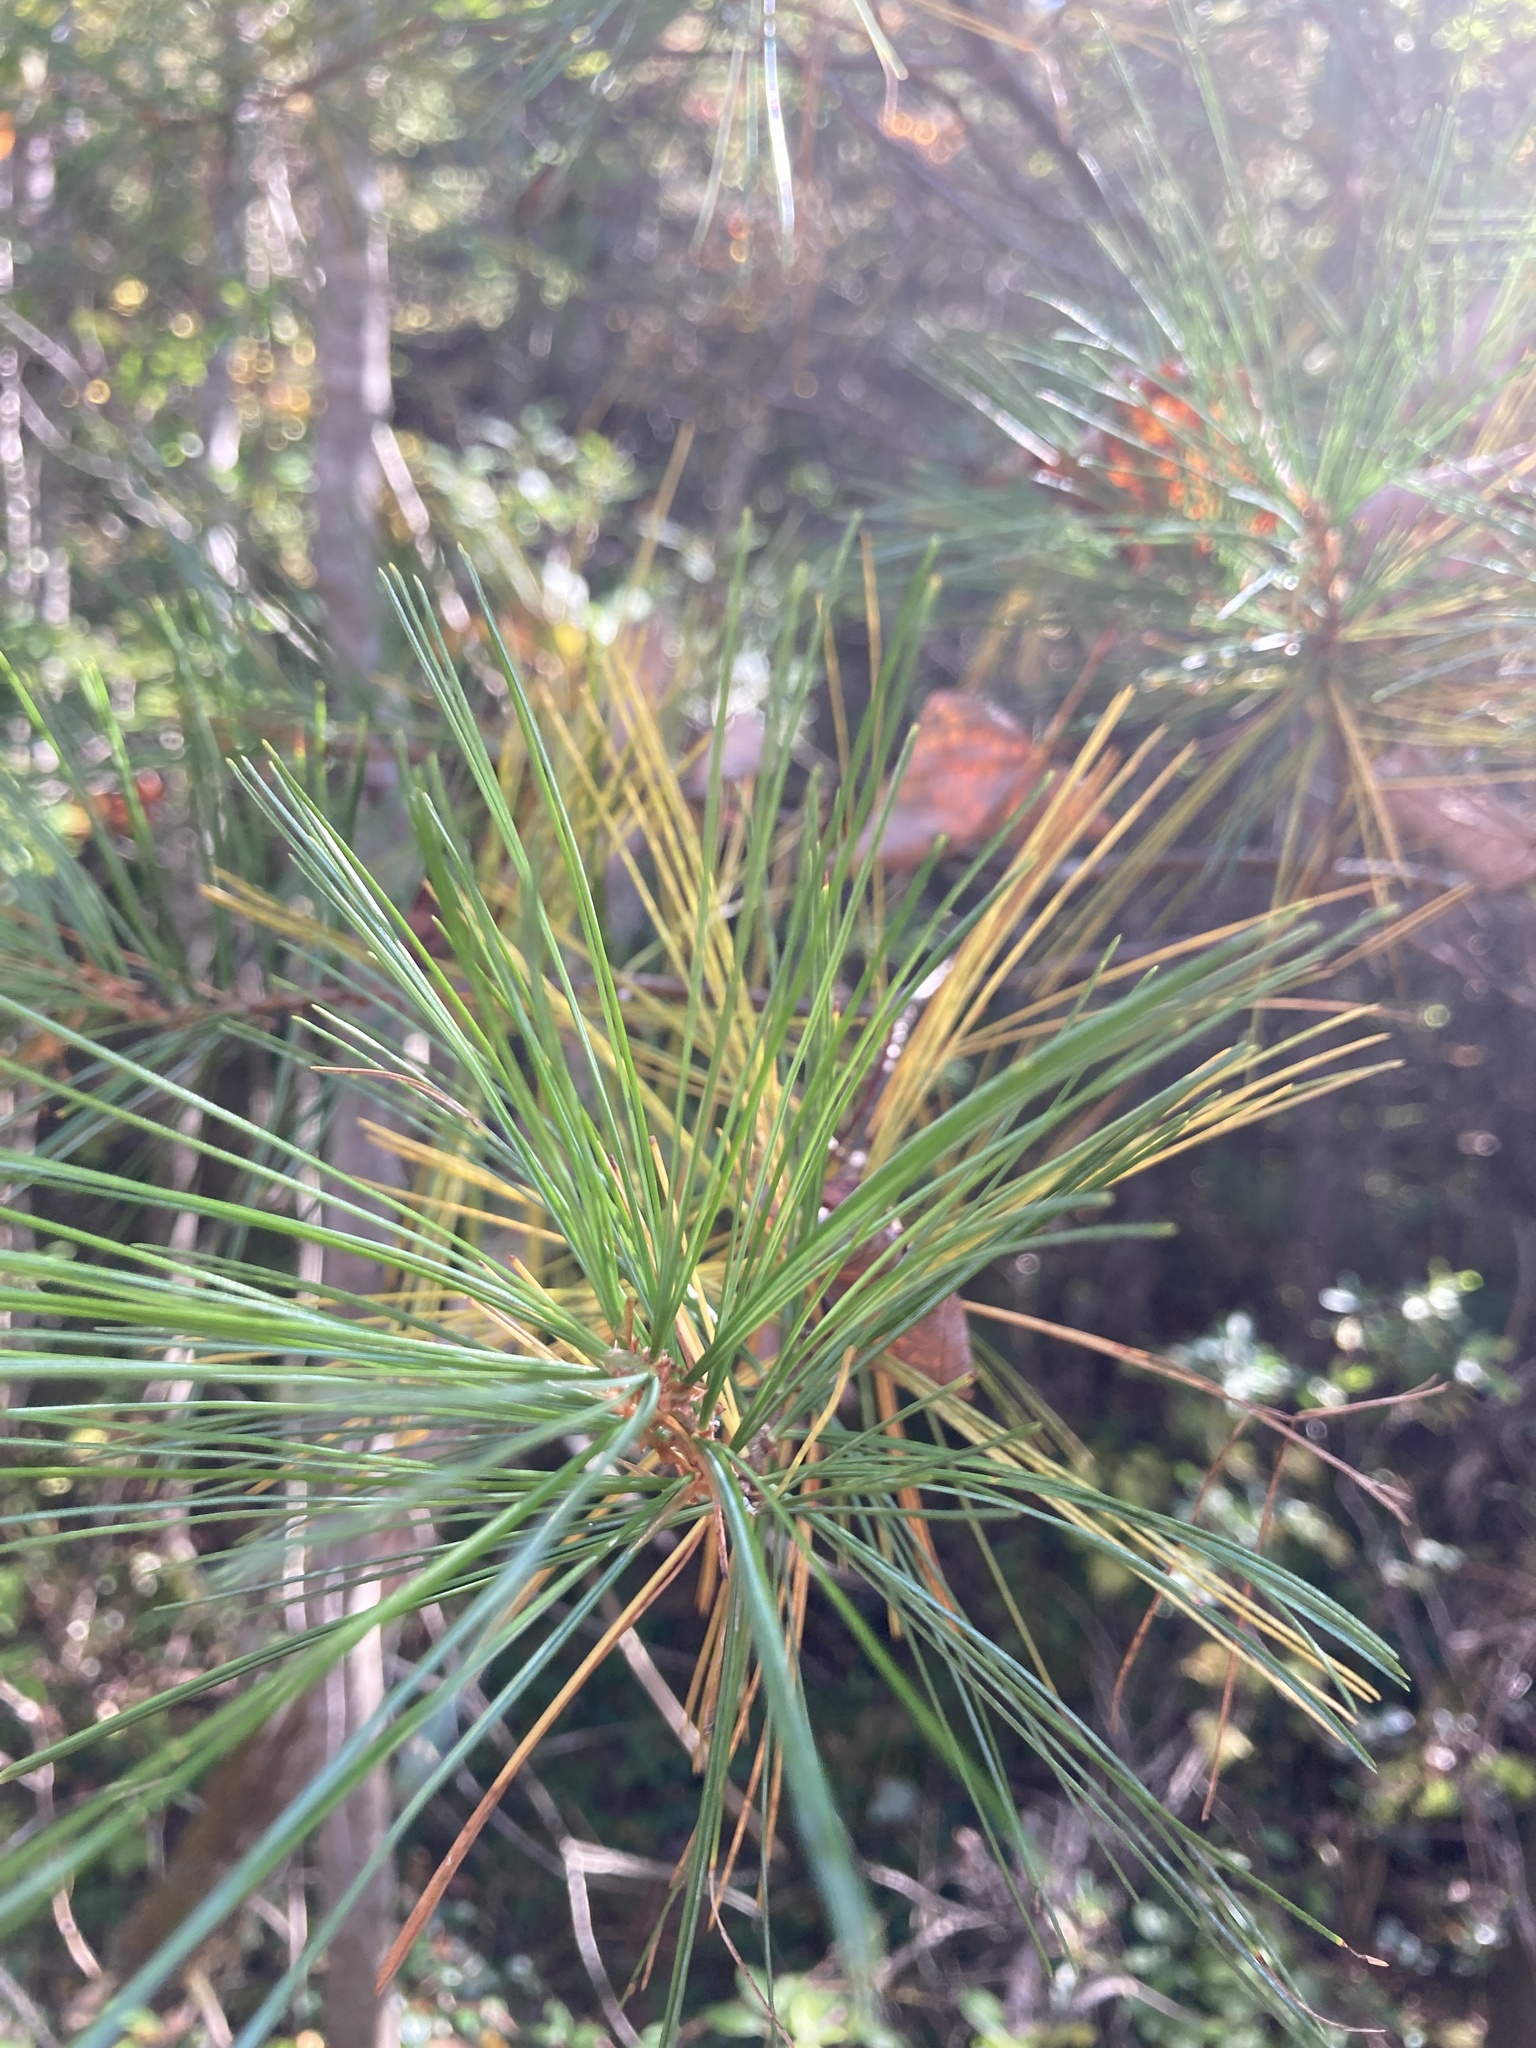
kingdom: Plantae
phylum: Tracheophyta
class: Pinopsida
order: Pinales
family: Pinaceae
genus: Pinus
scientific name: Pinus strobus
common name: Weymouth pine
